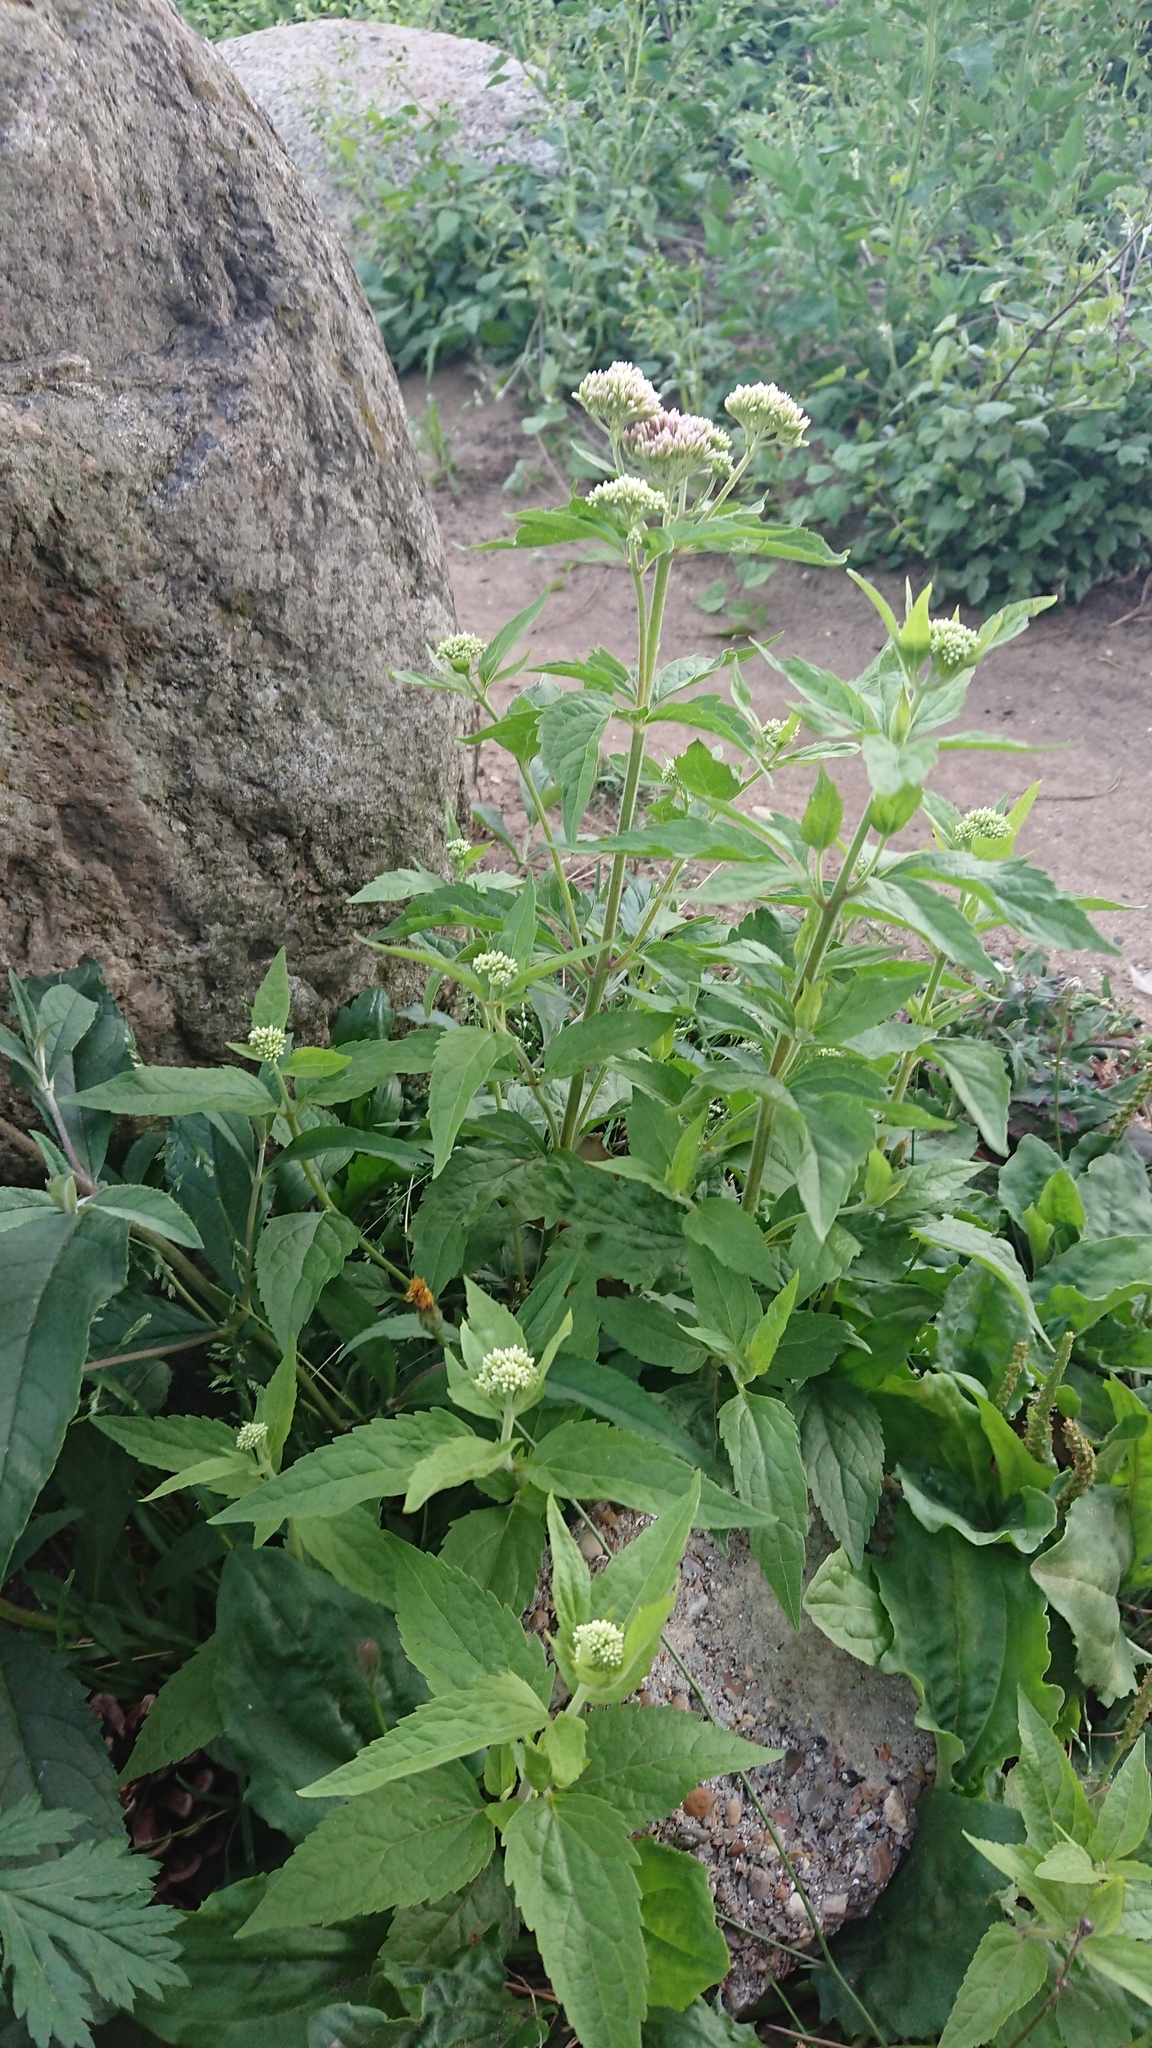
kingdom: Plantae
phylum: Tracheophyta
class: Magnoliopsida
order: Asterales
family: Asteraceae
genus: Eupatorium
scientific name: Eupatorium cannabinum
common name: Hemp-agrimony
